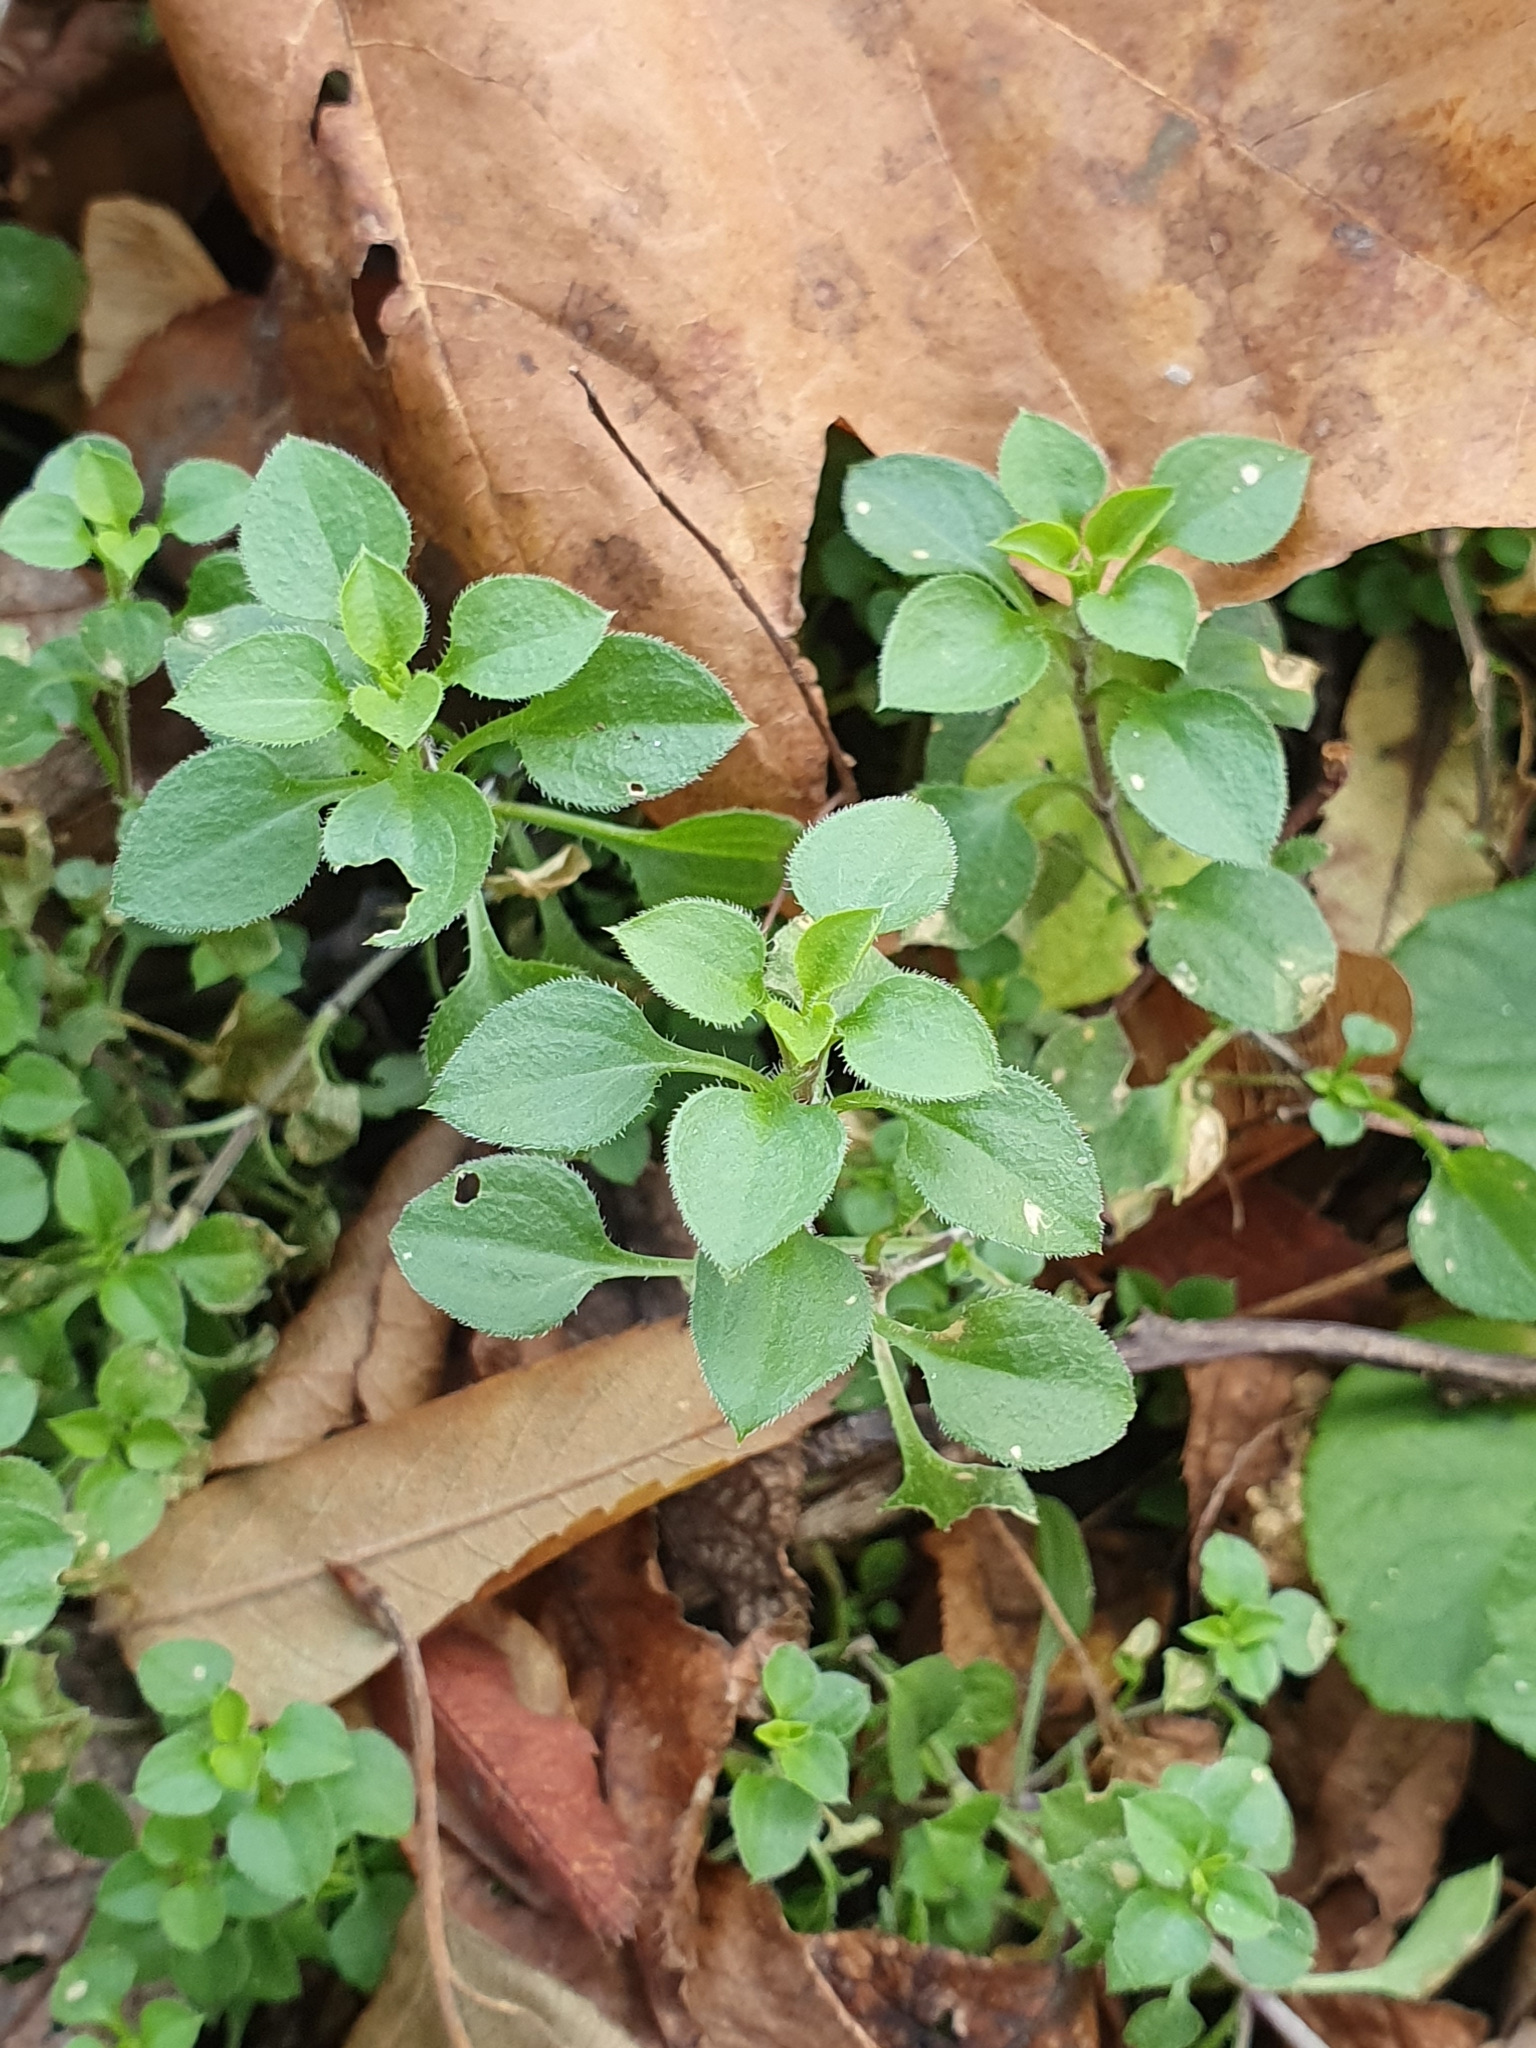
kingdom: Plantae
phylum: Tracheophyta
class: Magnoliopsida
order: Caryophyllales
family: Caryophyllaceae
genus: Moehringia
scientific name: Moehringia trinervia
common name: Three-nerved sandwort
